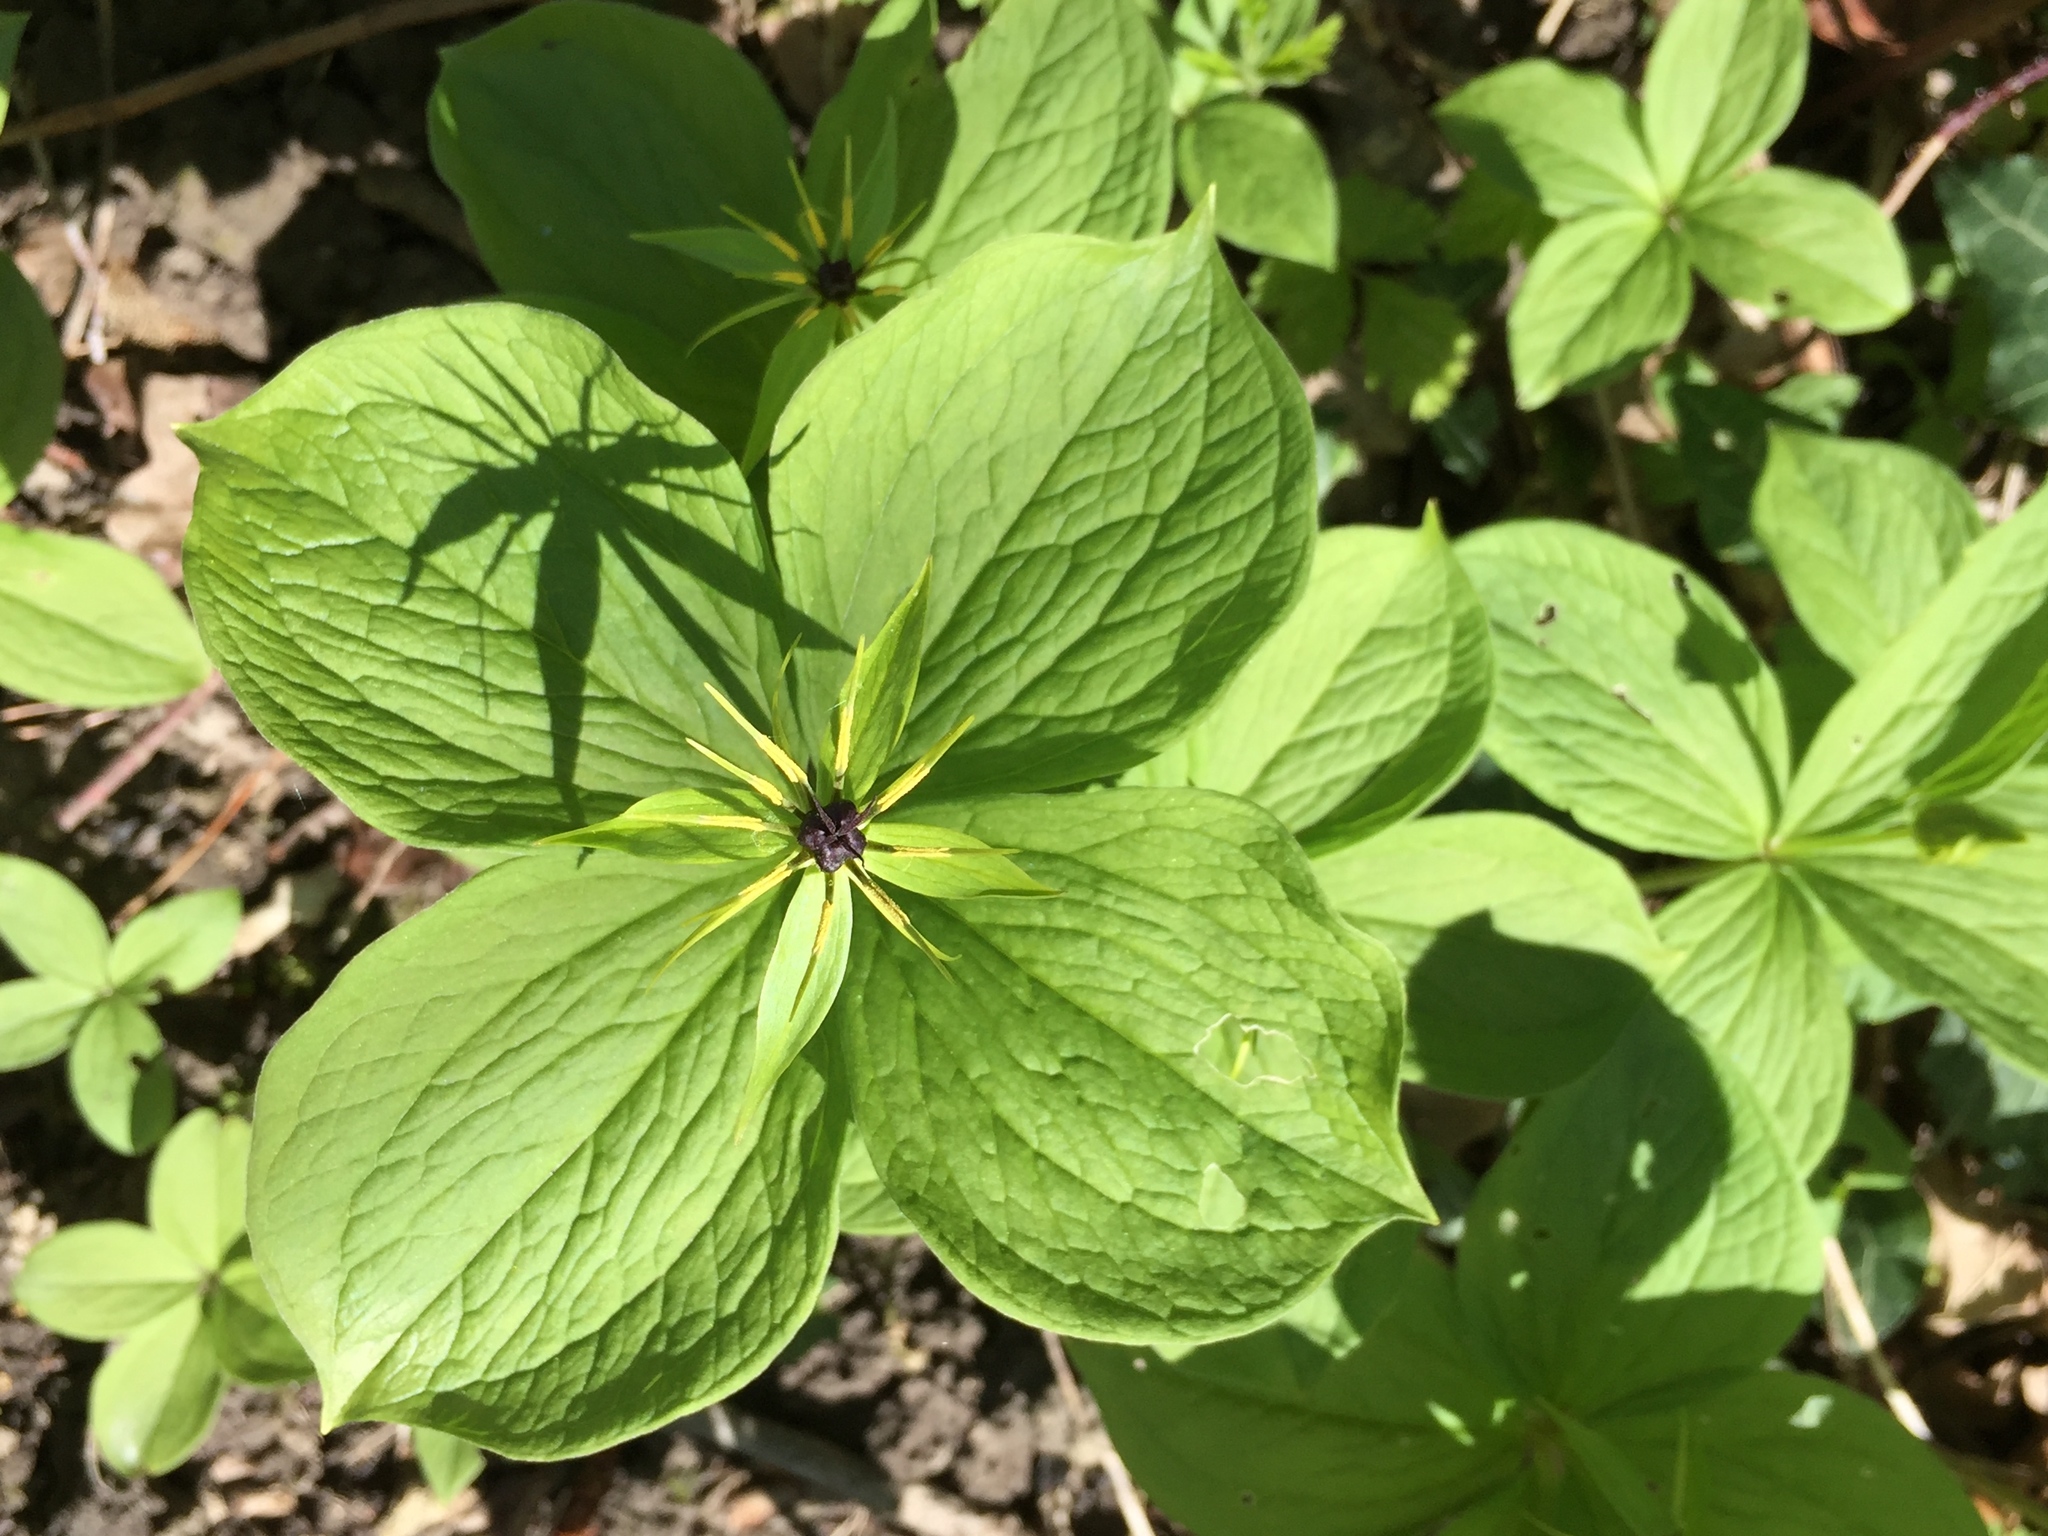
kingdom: Plantae
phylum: Tracheophyta
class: Liliopsida
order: Liliales
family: Melanthiaceae
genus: Paris
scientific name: Paris quadrifolia
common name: Herb-paris
